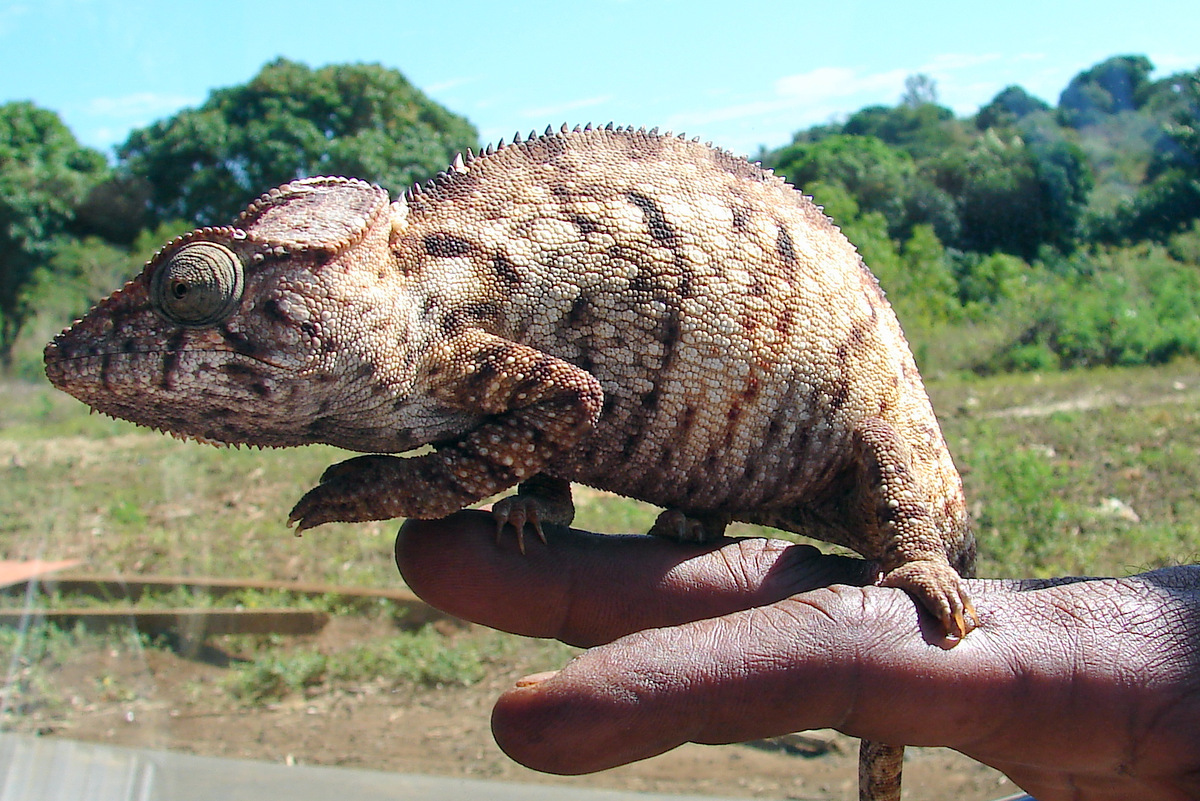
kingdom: Animalia
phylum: Chordata
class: Squamata
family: Chamaeleonidae
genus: Furcifer
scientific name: Furcifer oustaleti
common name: Oustalet's chameleon
